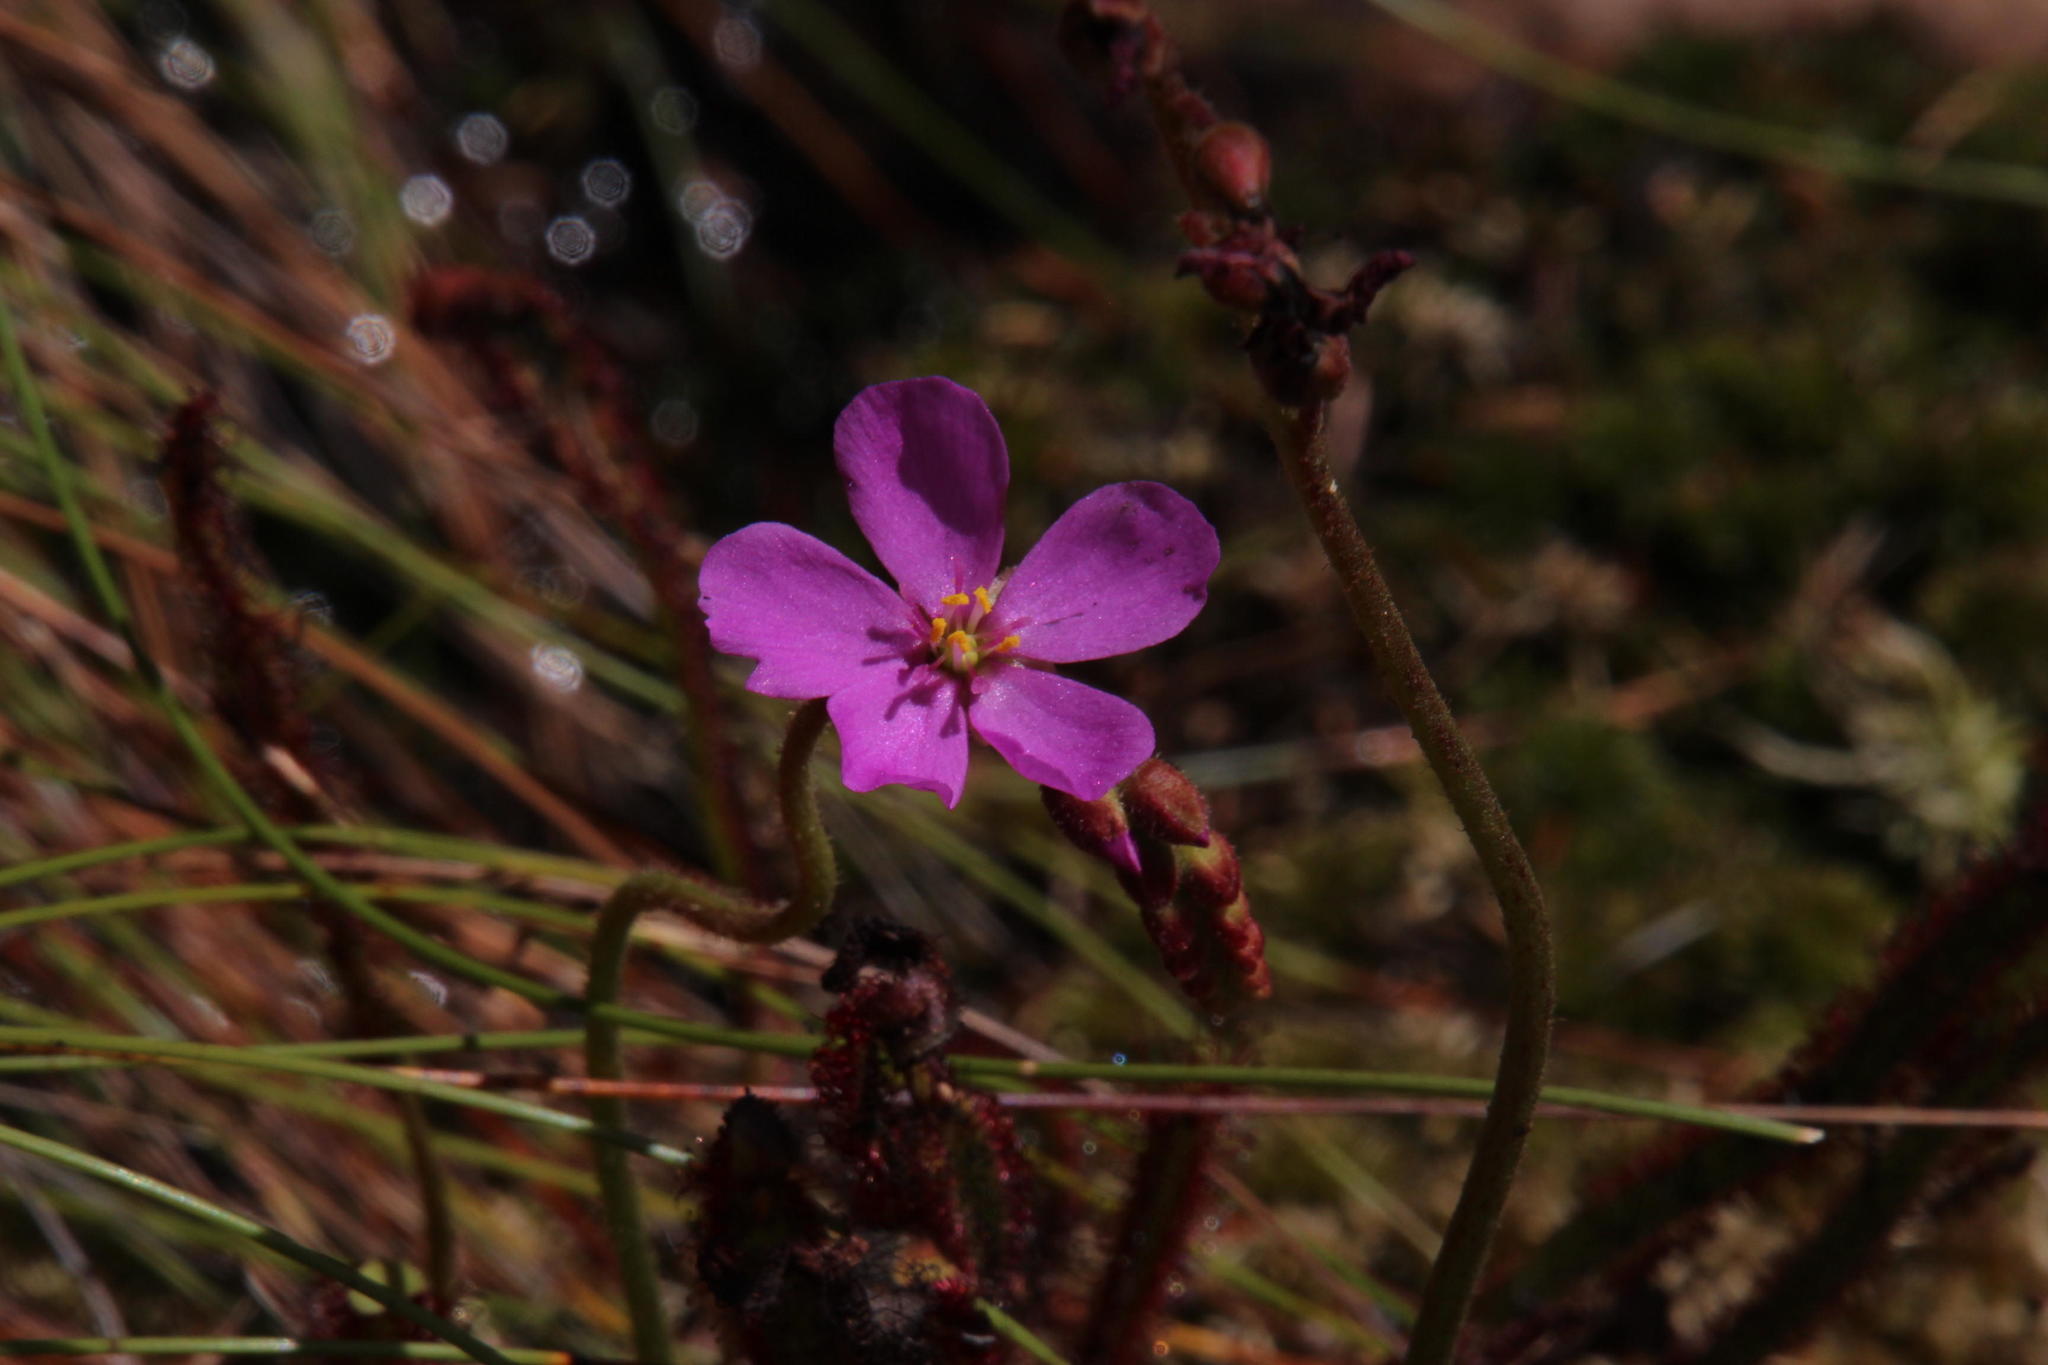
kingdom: Plantae
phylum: Tracheophyta
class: Magnoliopsida
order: Caryophyllales
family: Droseraceae
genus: Drosera
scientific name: Drosera capensis
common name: Cape sundew
